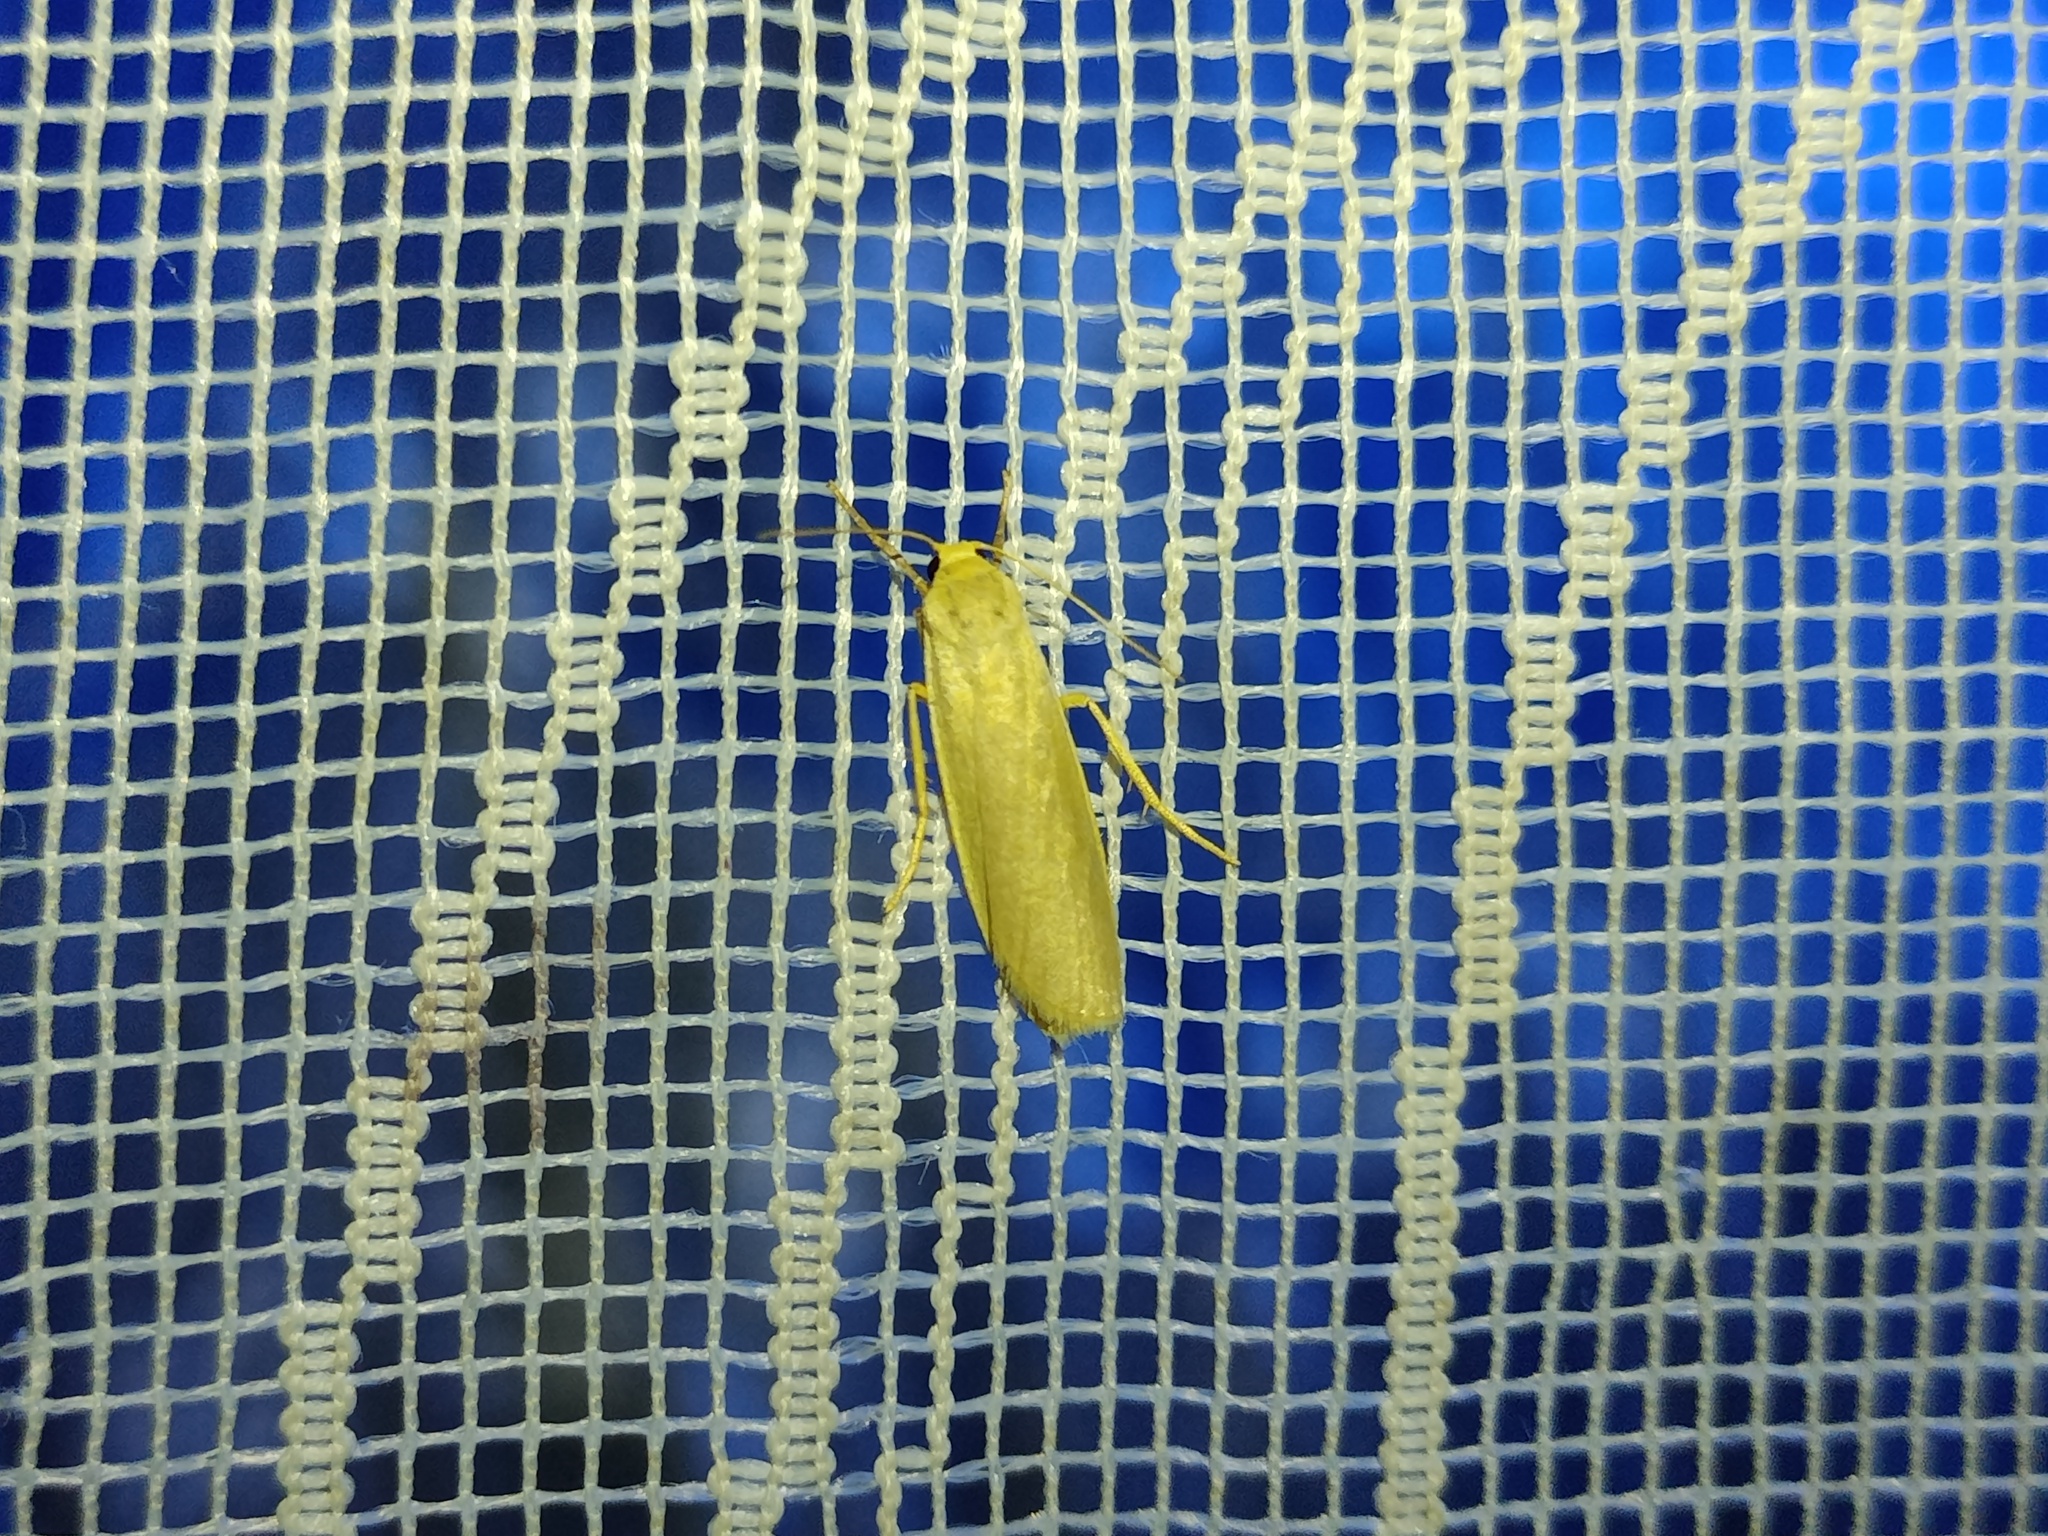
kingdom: Animalia
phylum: Arthropoda
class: Insecta
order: Lepidoptera
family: Erebidae
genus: Muscula
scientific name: Muscula muscula
